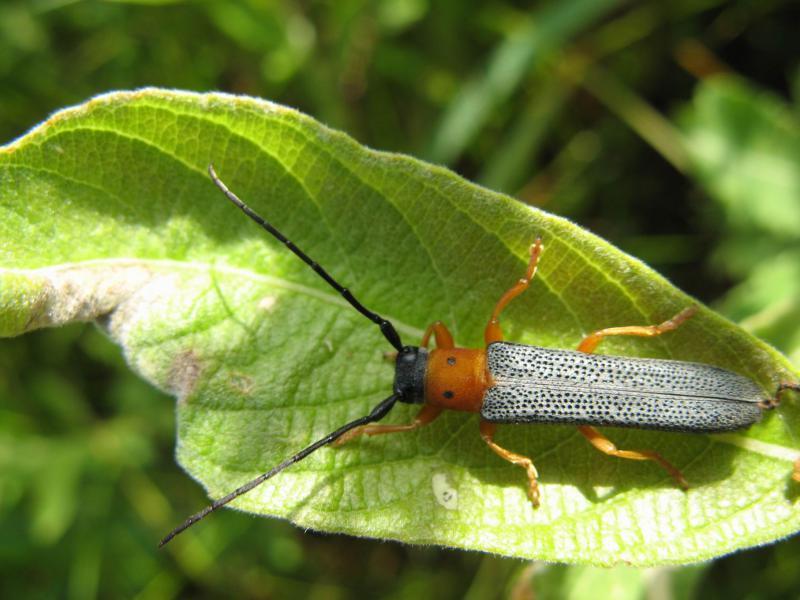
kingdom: Animalia
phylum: Arthropoda
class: Insecta
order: Coleoptera
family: Cerambycidae
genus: Oberea
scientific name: Oberea oculata
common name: Eyed longhorn beetle
